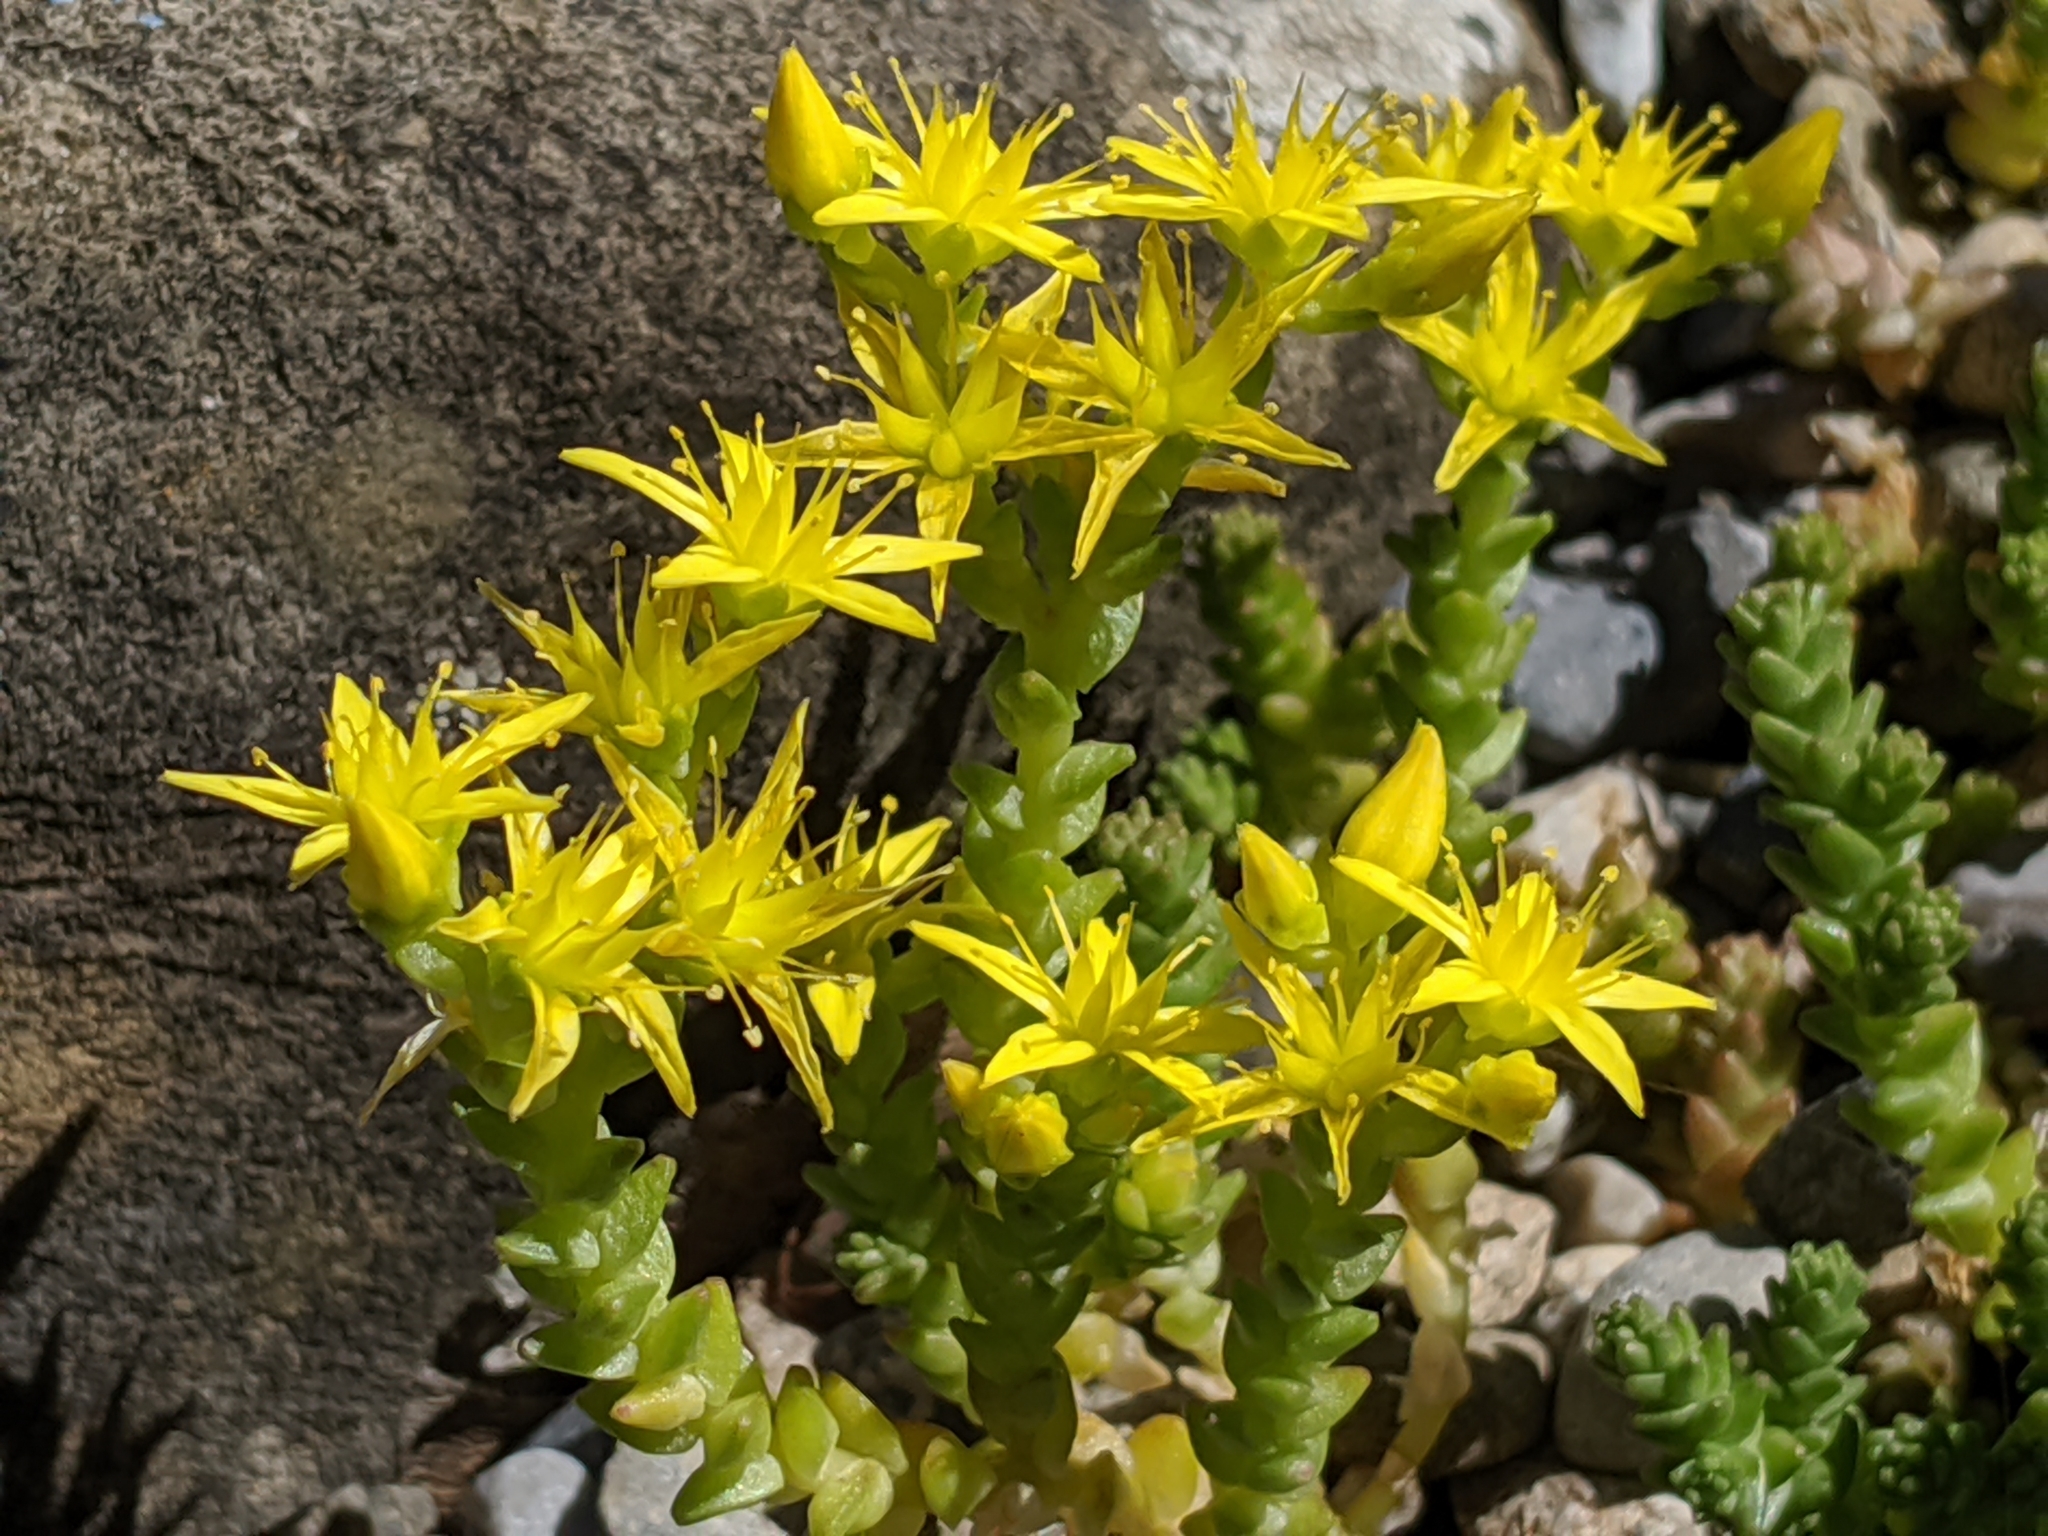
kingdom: Plantae
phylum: Tracheophyta
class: Magnoliopsida
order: Saxifragales
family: Crassulaceae
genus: Sedum
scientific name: Sedum acre
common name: Biting stonecrop
